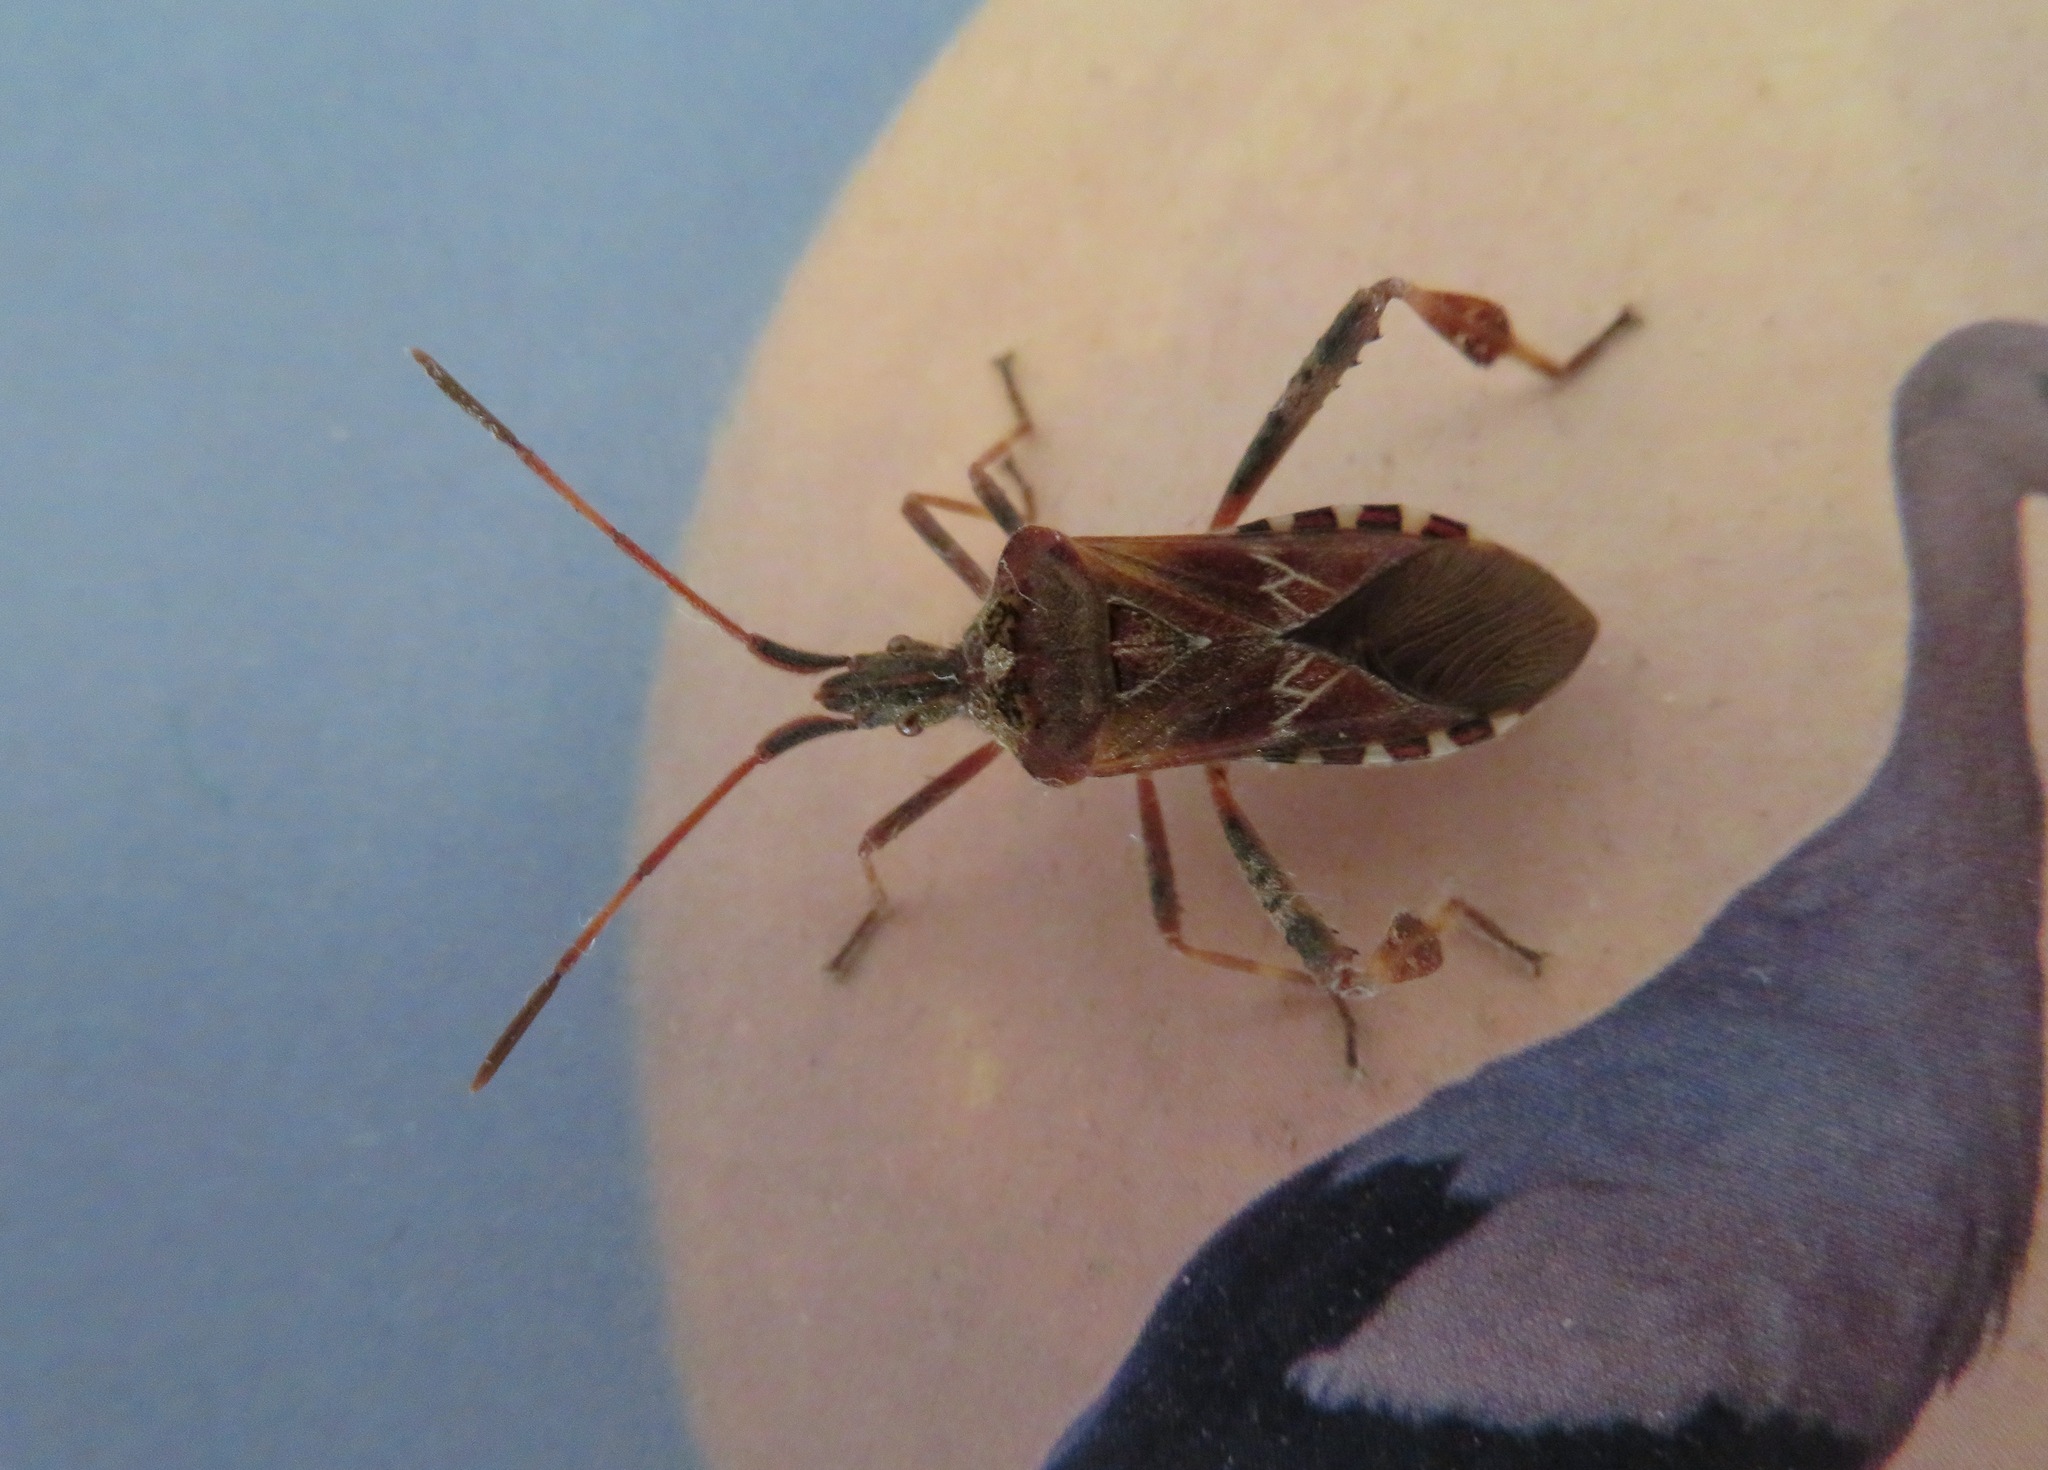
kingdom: Animalia
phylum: Arthropoda
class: Insecta
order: Hemiptera
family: Coreidae
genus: Leptoglossus
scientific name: Leptoglossus occidentalis
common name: Western conifer-seed bug
